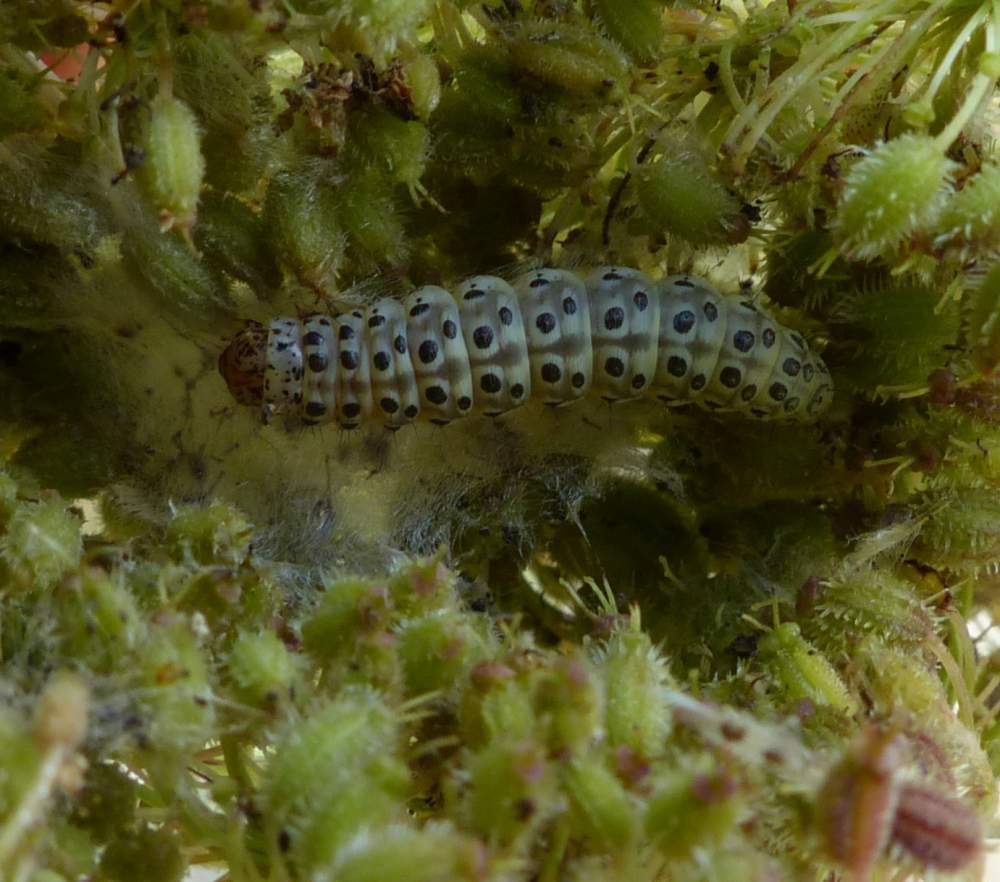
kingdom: Animalia
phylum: Arthropoda
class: Insecta
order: Lepidoptera
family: Crambidae
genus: Sitochroa
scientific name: Sitochroa palealis
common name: Greenish-yellow sitochroa moth
